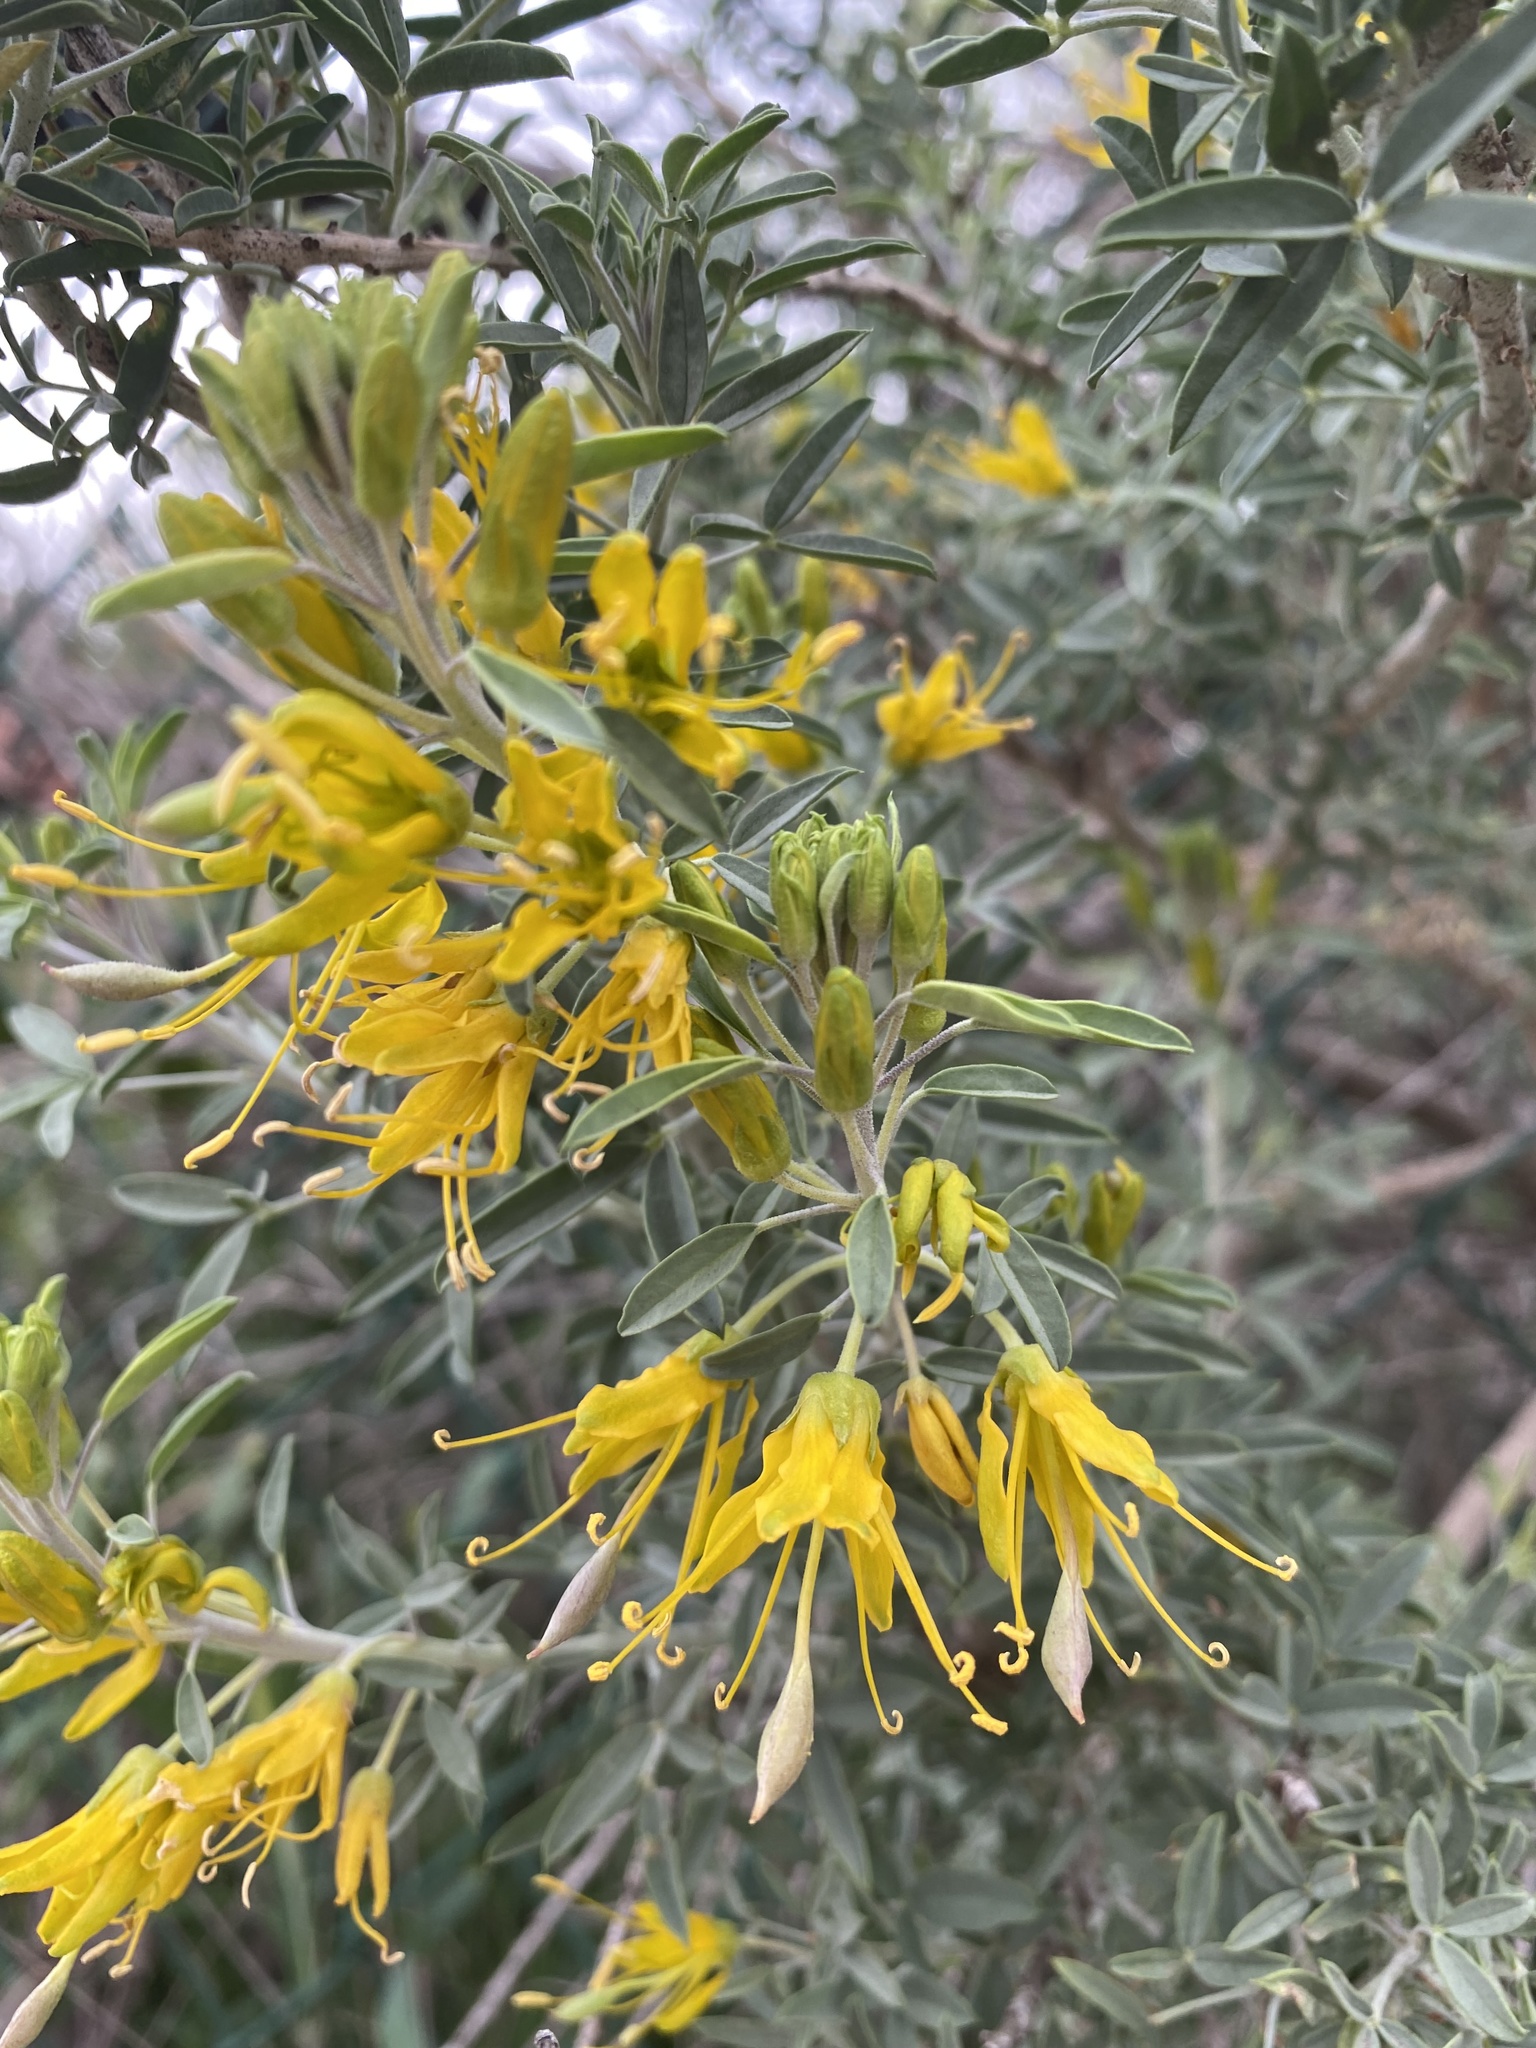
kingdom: Plantae
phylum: Tracheophyta
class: Magnoliopsida
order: Brassicales
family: Cleomaceae
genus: Cleomella
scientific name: Cleomella arborea
